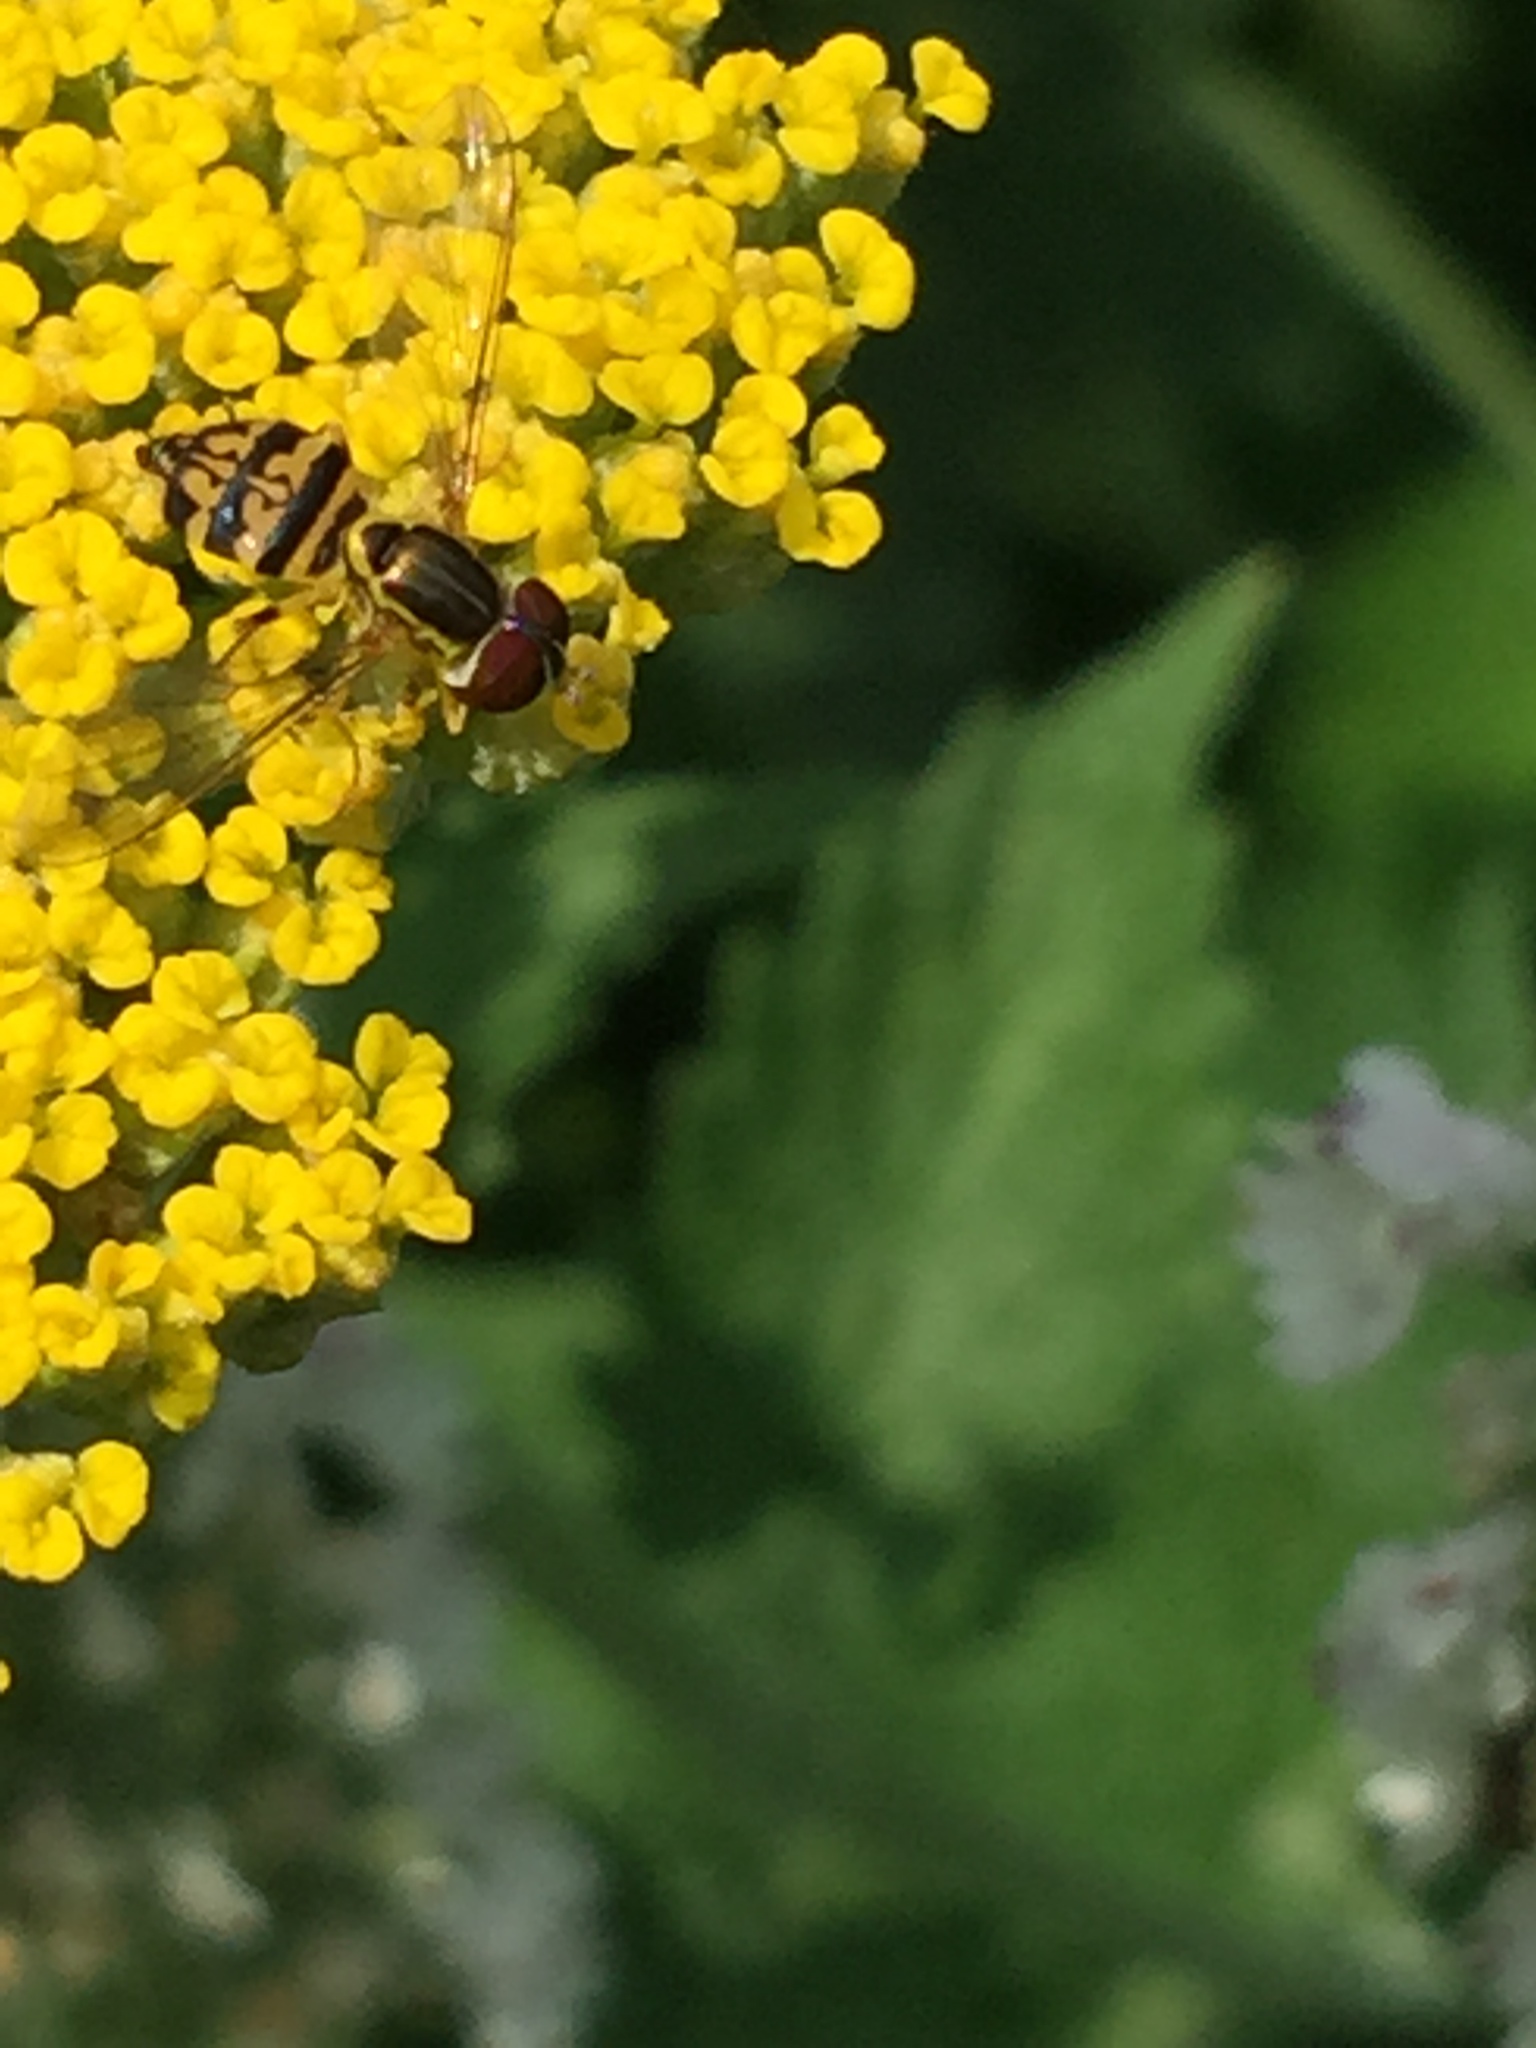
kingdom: Animalia
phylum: Arthropoda
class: Insecta
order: Diptera
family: Syrphidae
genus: Toxomerus
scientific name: Toxomerus geminatus
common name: Eastern calligrapher
